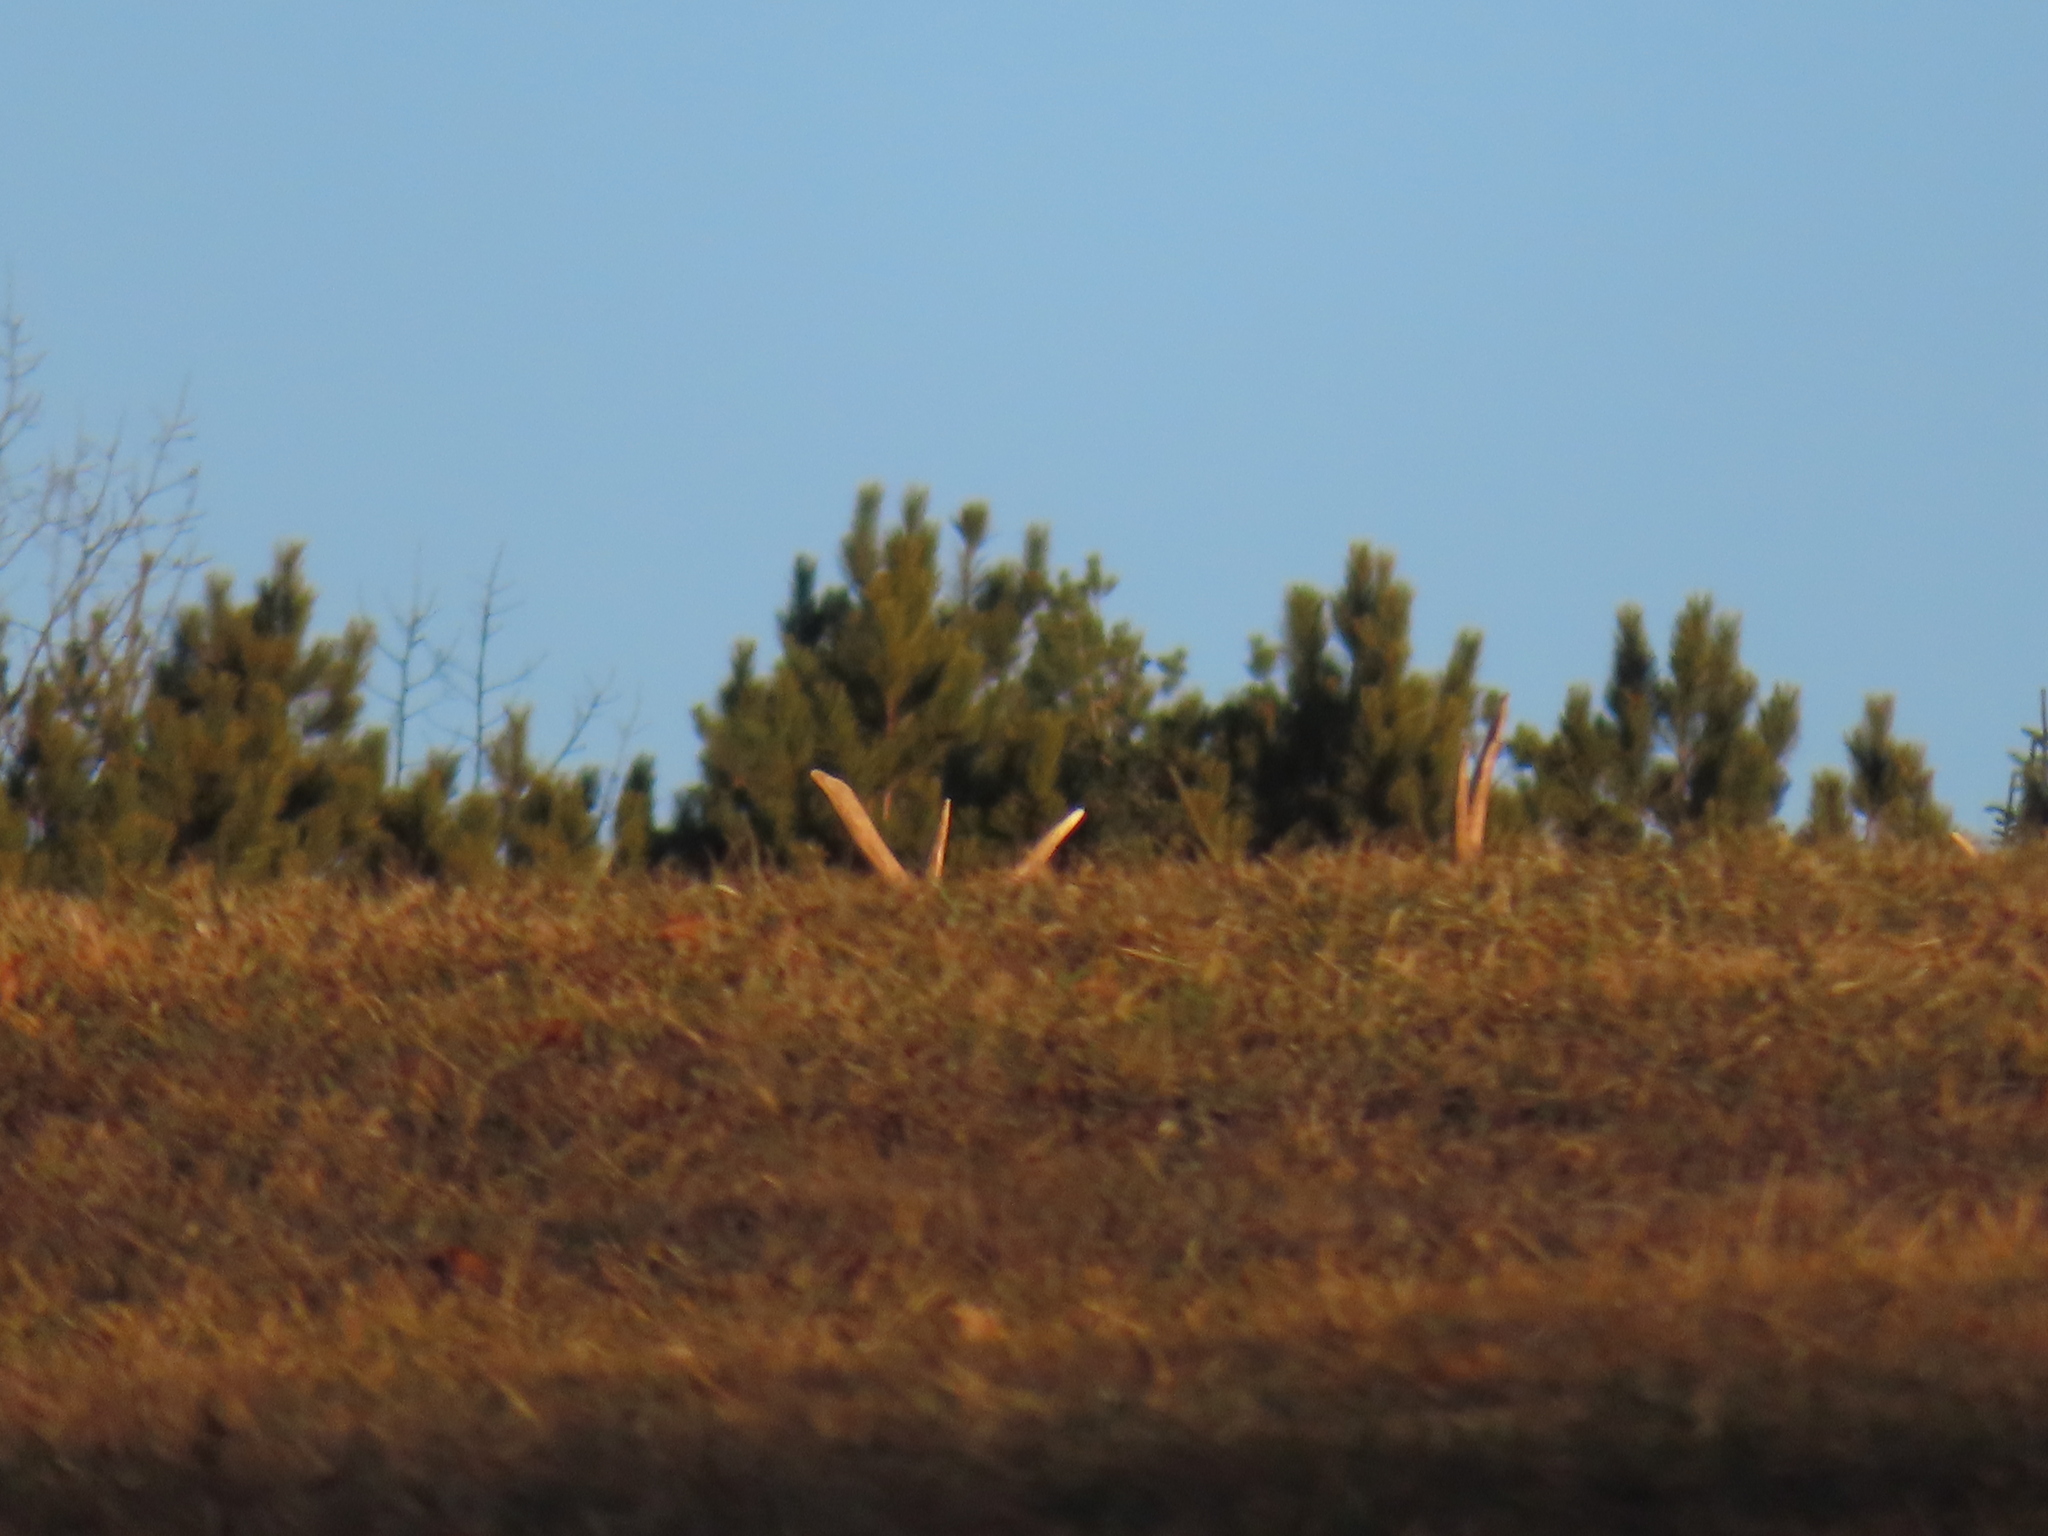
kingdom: Animalia
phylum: Chordata
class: Mammalia
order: Artiodactyla
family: Cervidae
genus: Cervus
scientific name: Cervus elaphus
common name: Red deer
